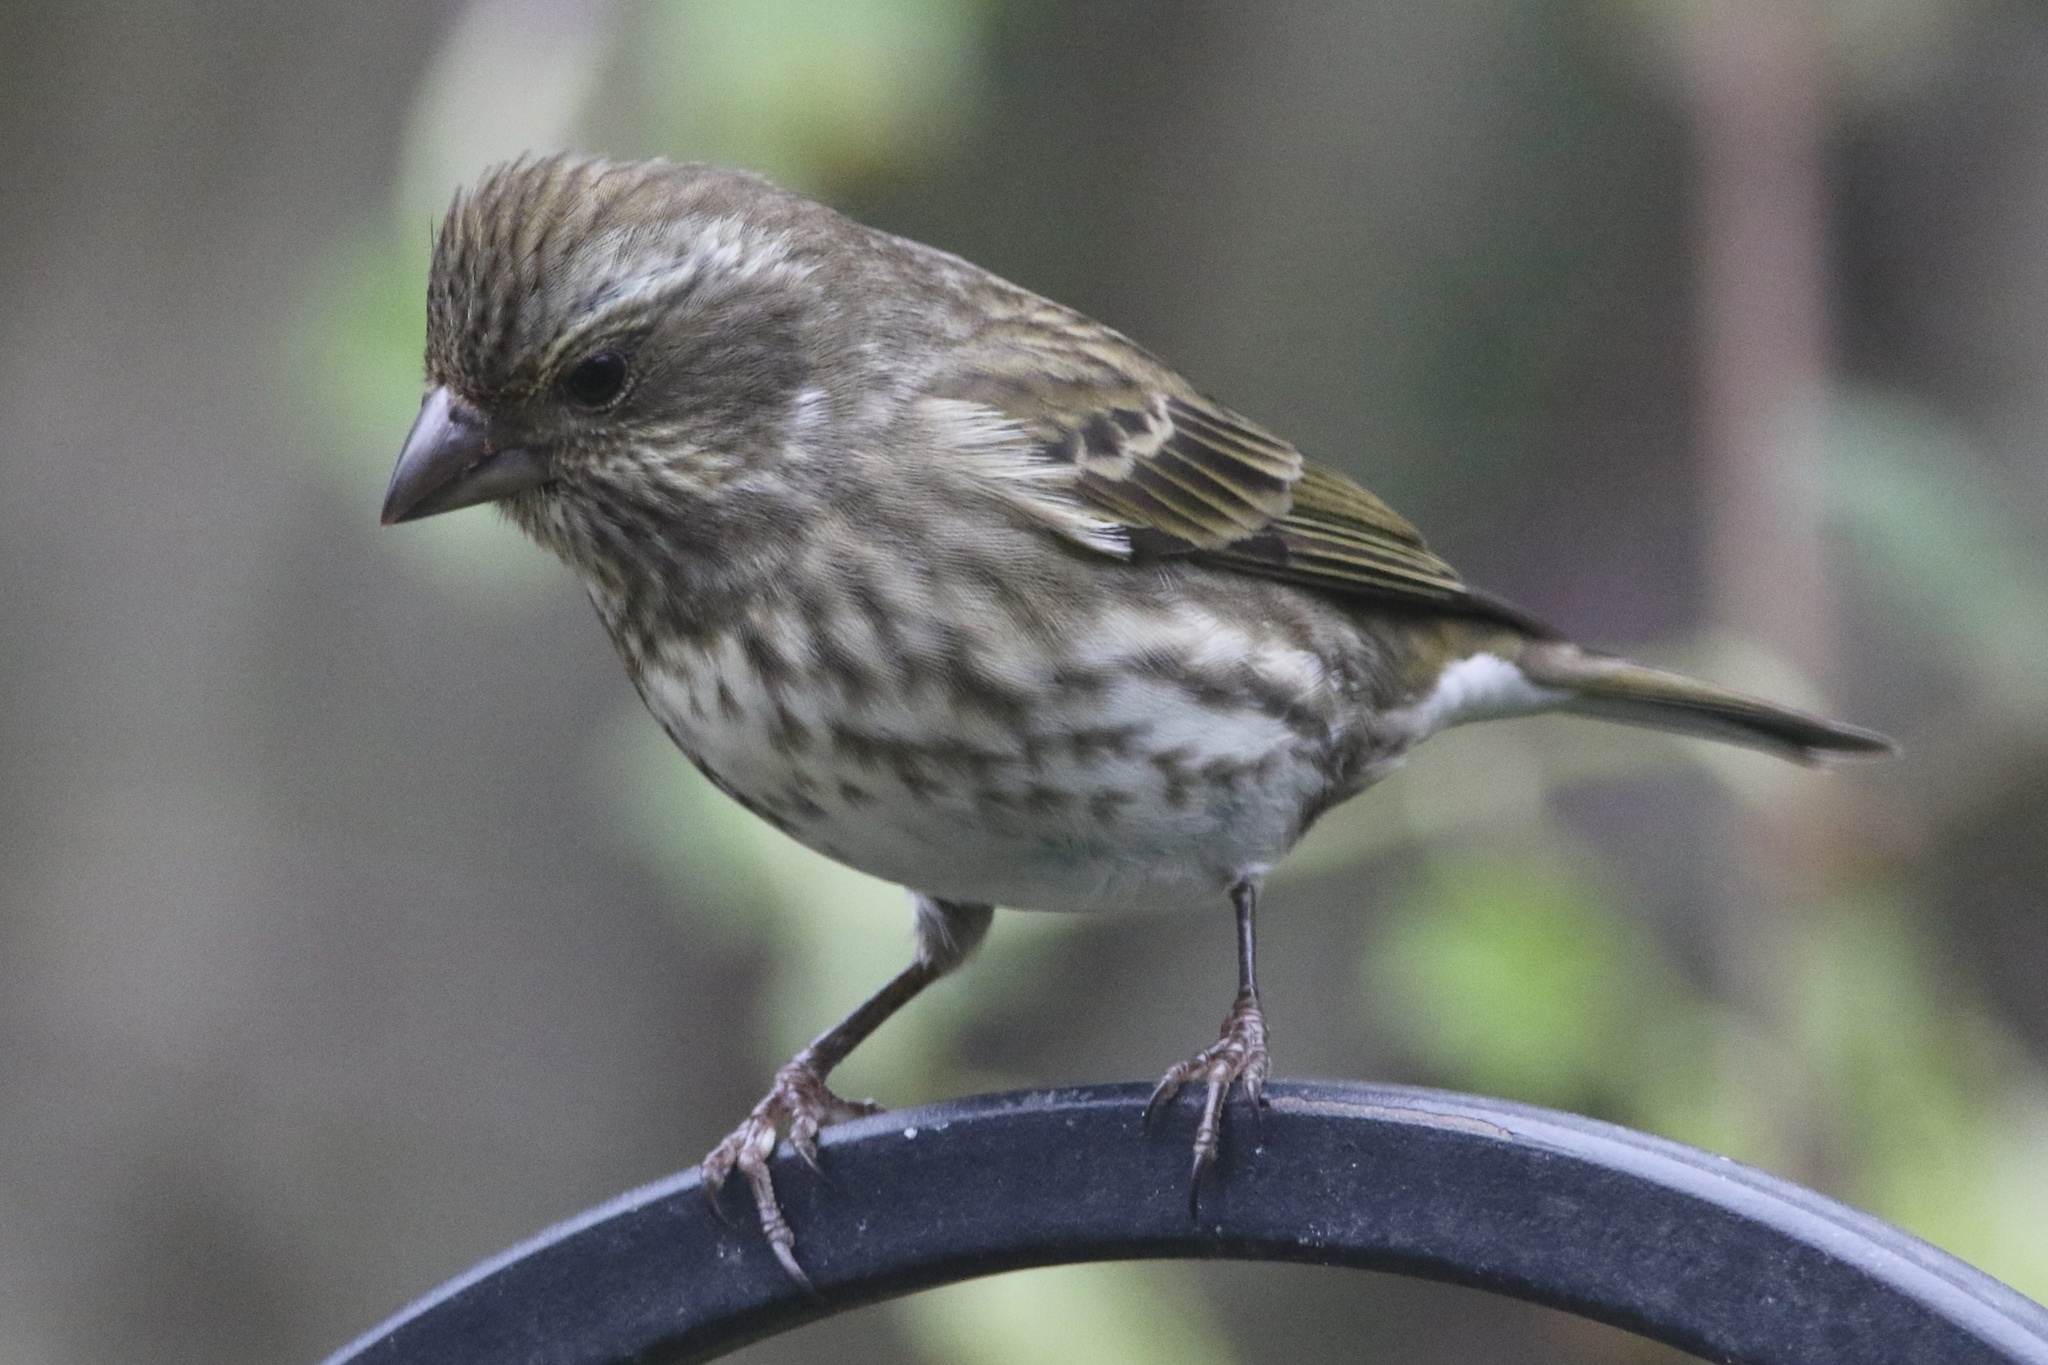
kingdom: Animalia
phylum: Chordata
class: Aves
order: Passeriformes
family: Fringillidae
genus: Haemorhous
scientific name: Haemorhous purpureus
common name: Purple finch
